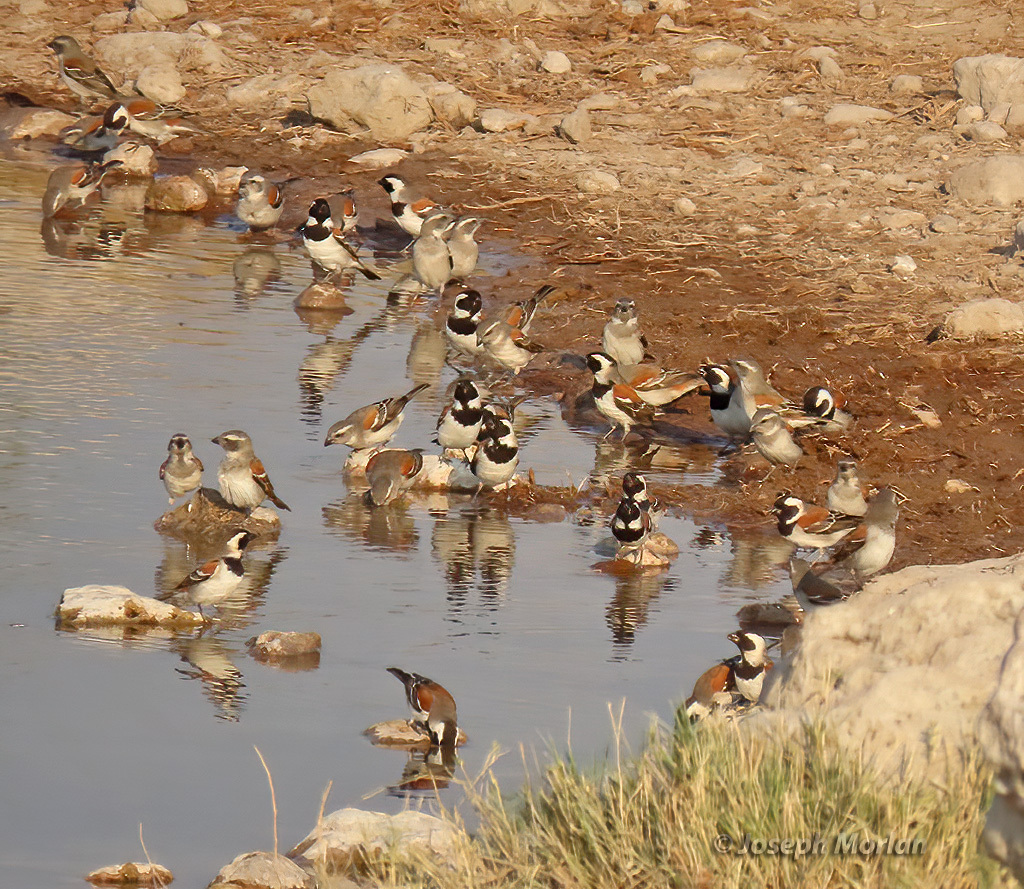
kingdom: Animalia
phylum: Chordata
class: Aves
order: Passeriformes
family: Passeridae
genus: Passer
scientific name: Passer melanurus
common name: Cape sparrow
